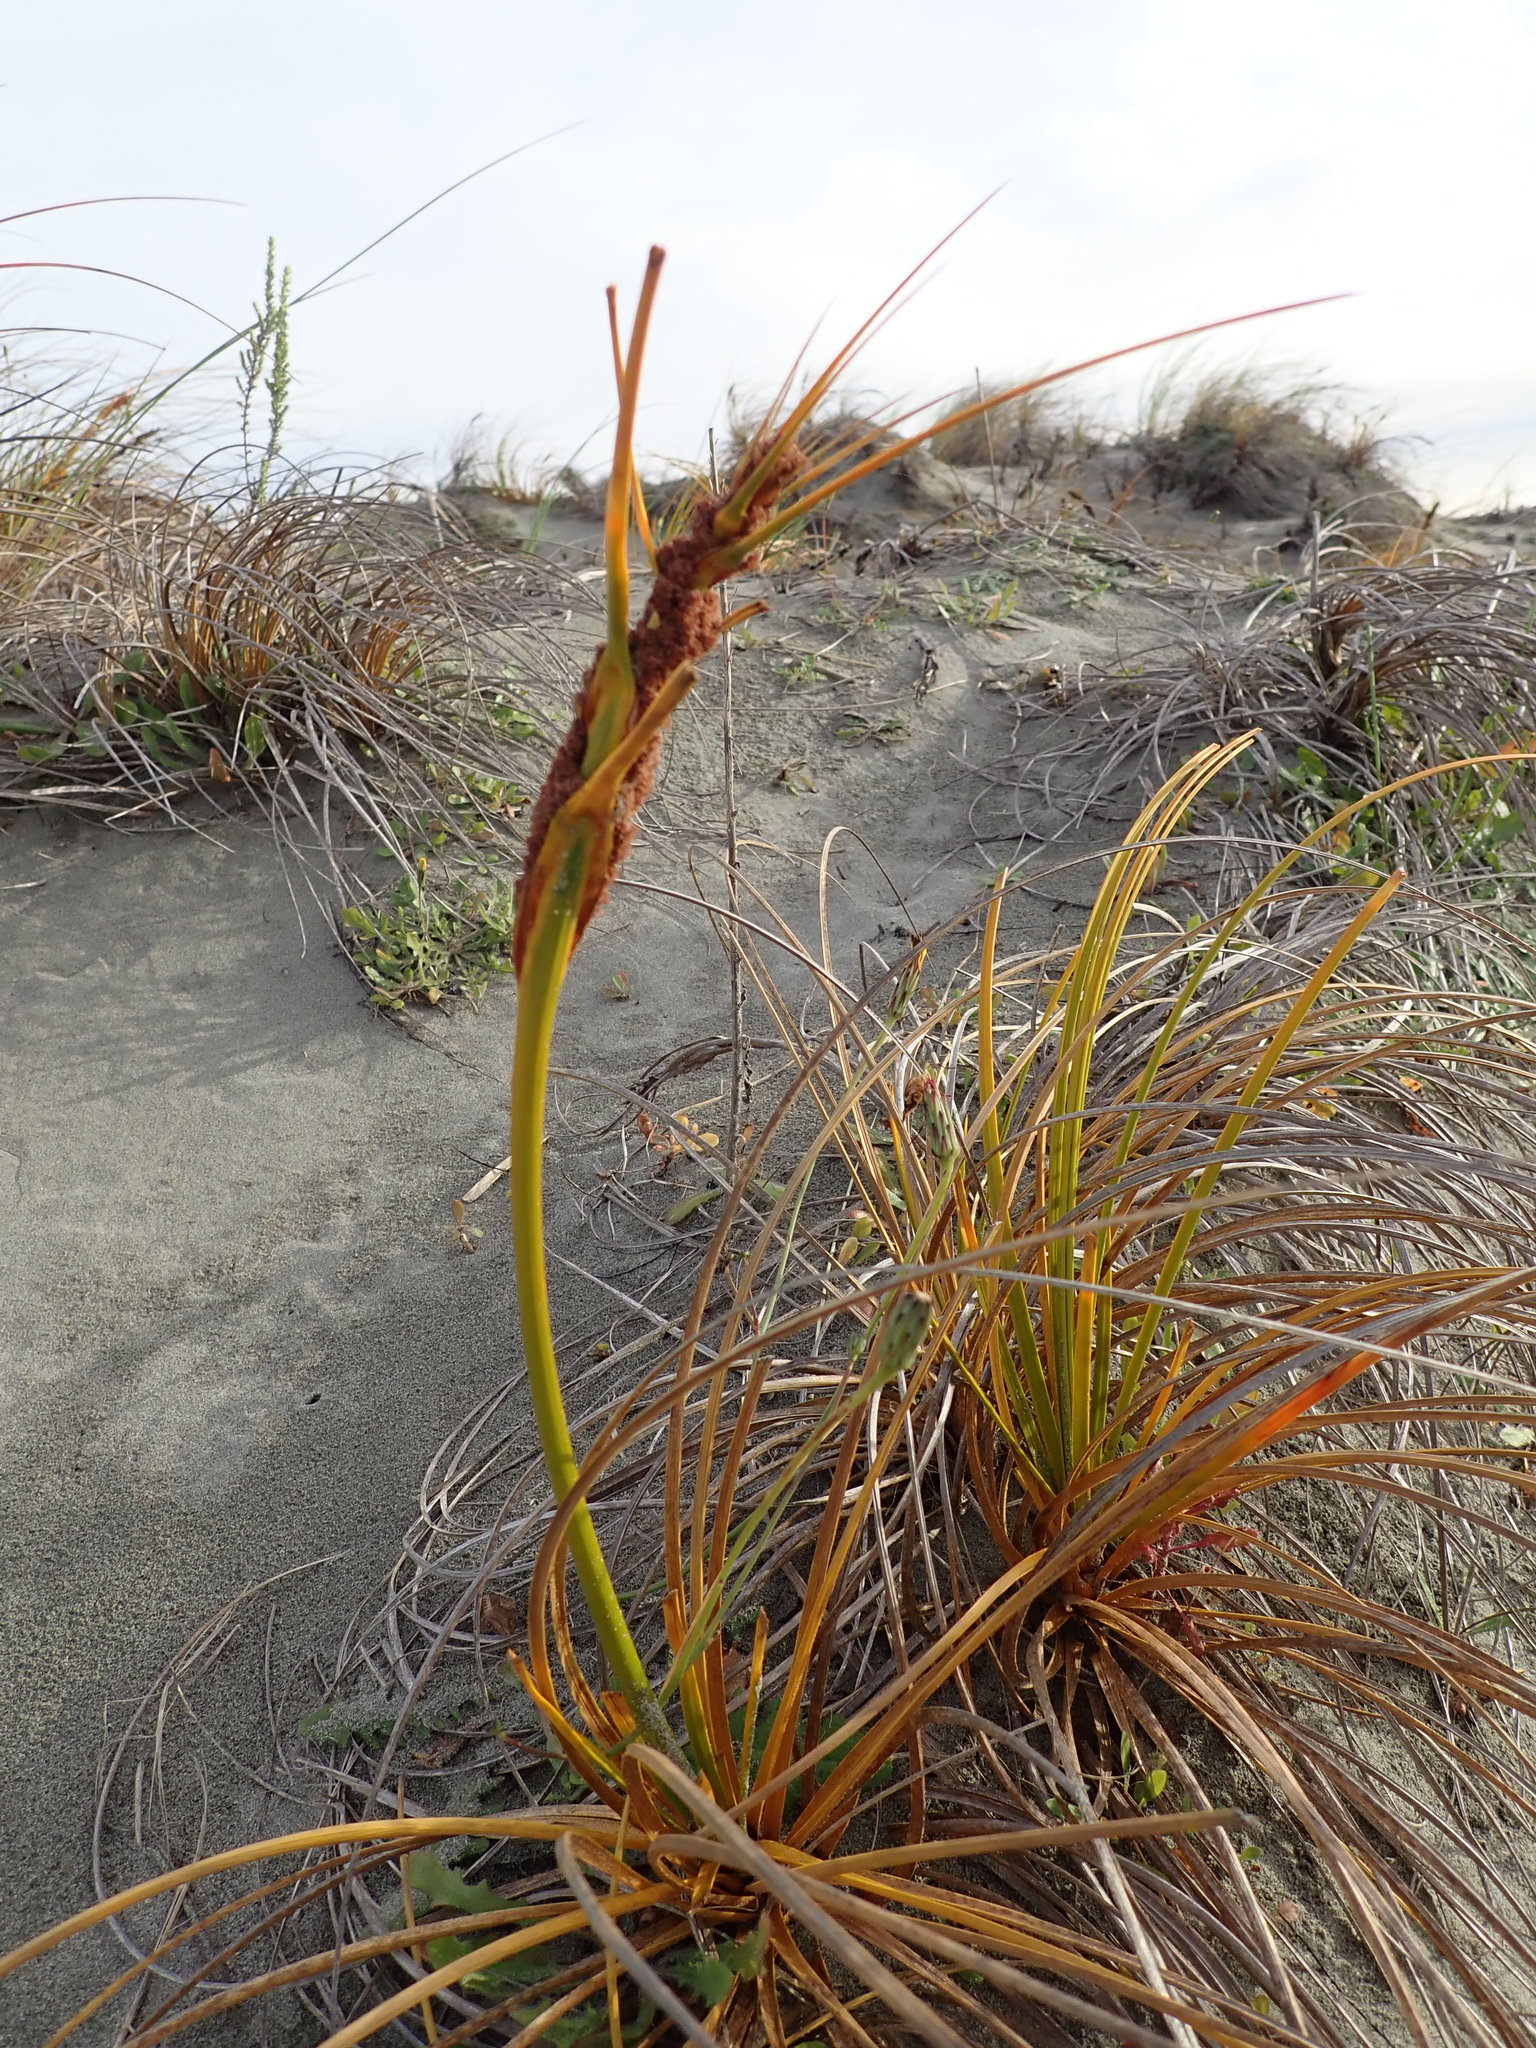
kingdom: Plantae
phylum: Tracheophyta
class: Liliopsida
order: Poales
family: Cyperaceae
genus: Ficinia
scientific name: Ficinia spiralis
